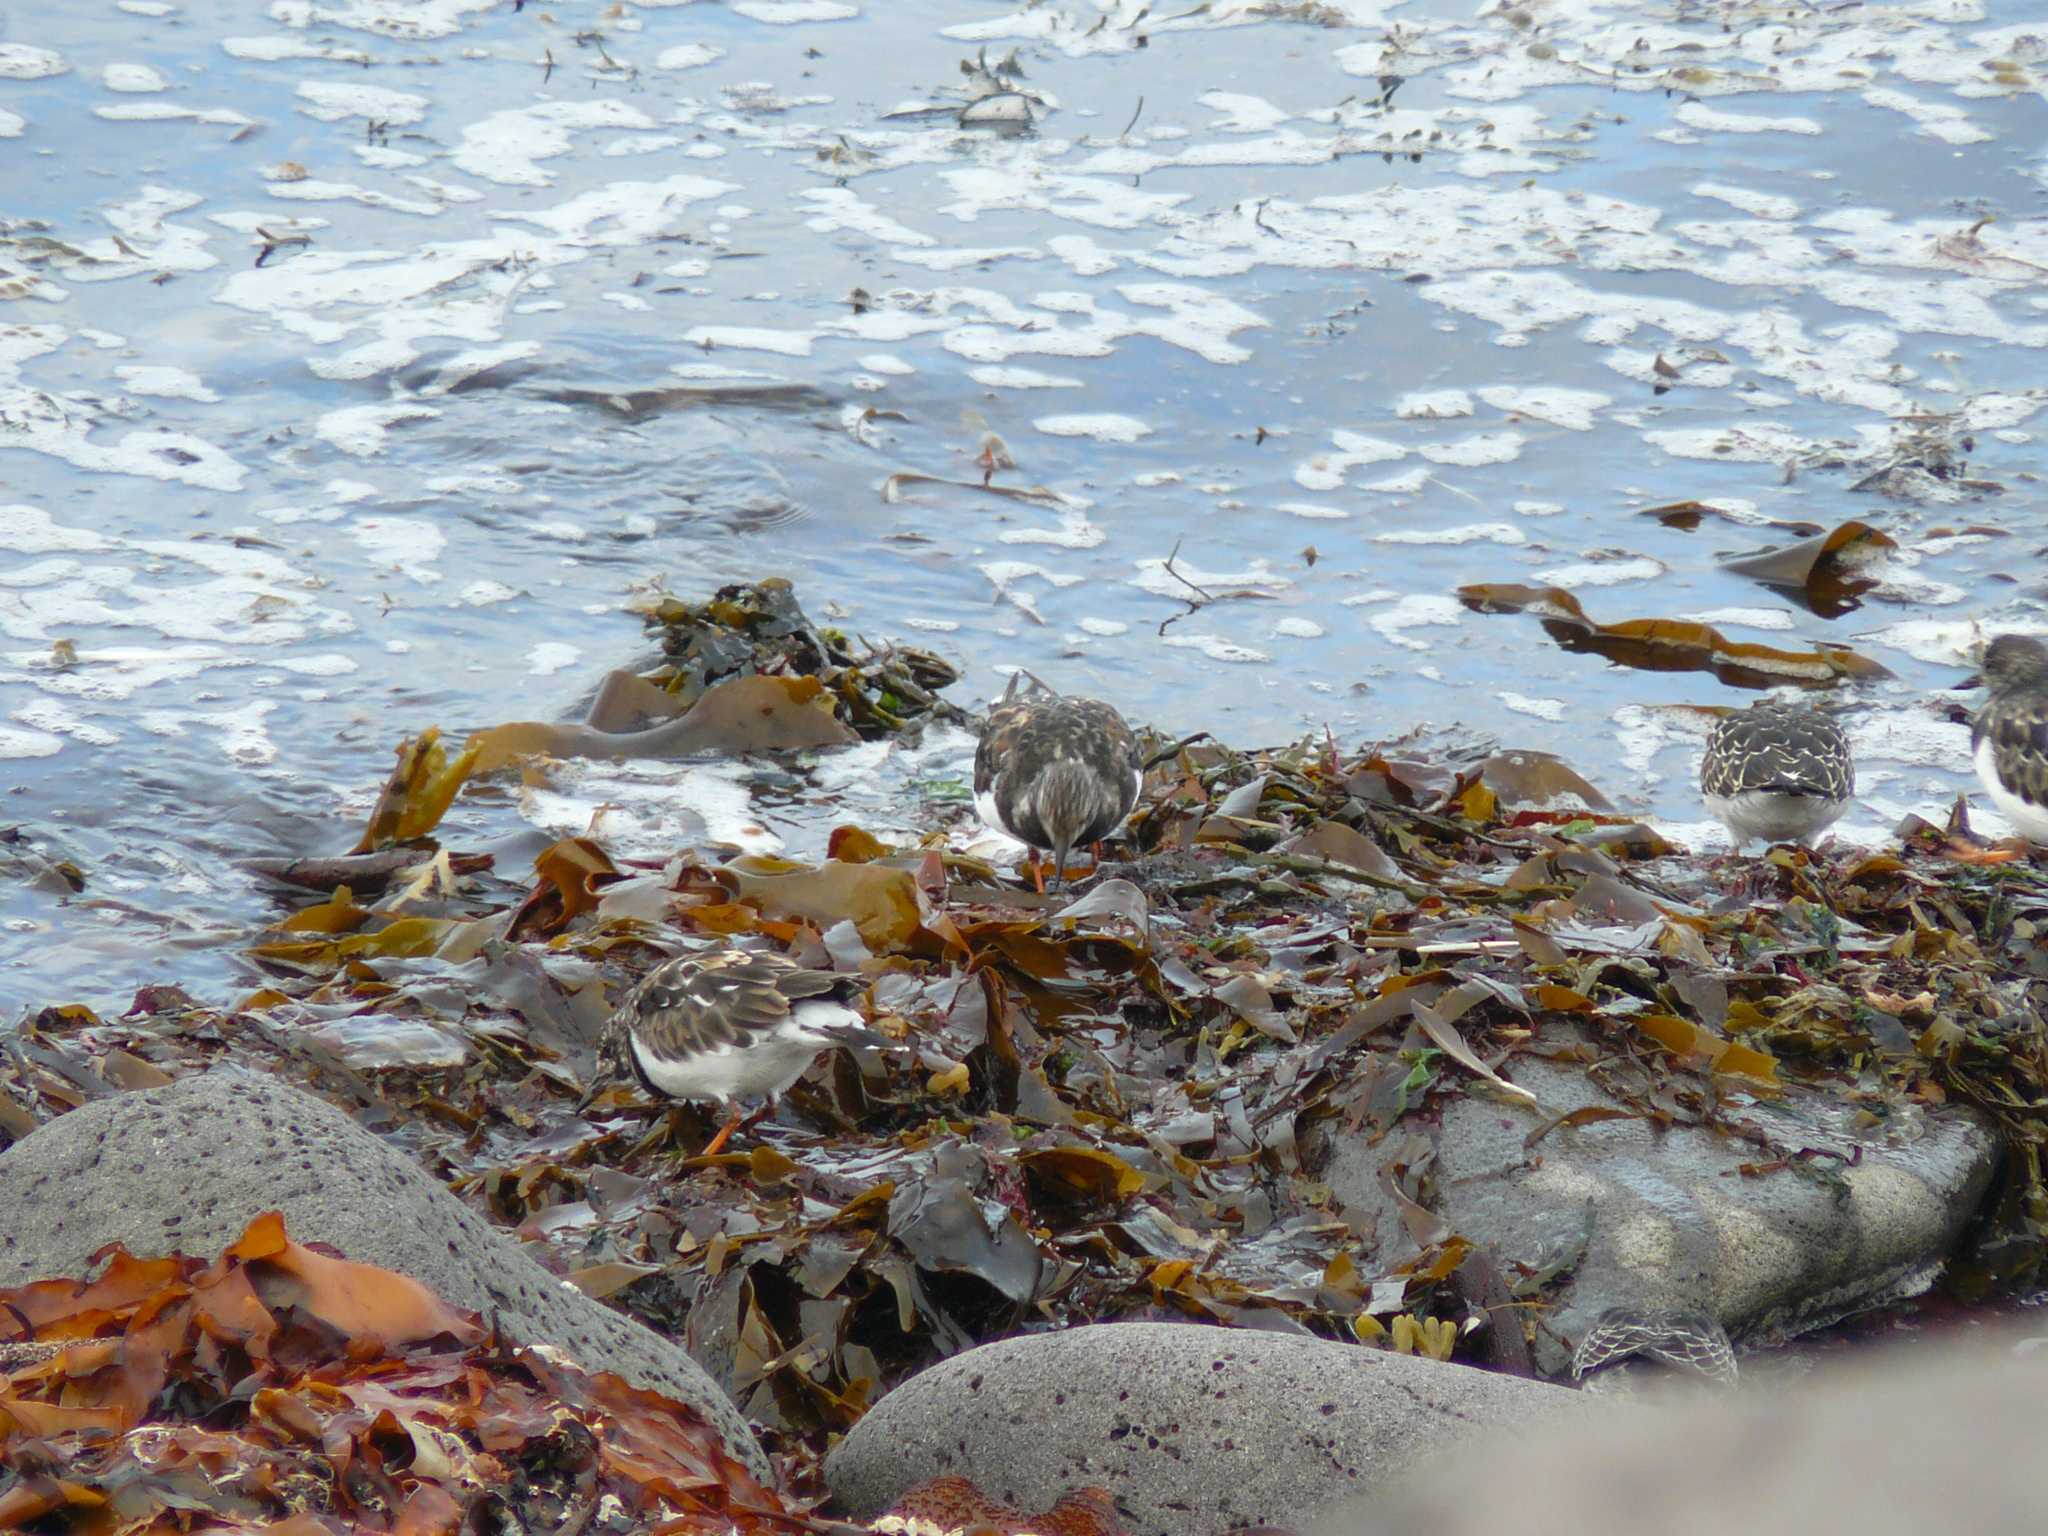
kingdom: Animalia
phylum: Chordata
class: Aves
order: Charadriiformes
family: Scolopacidae
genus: Arenaria
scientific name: Arenaria interpres
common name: Ruddy turnstone
